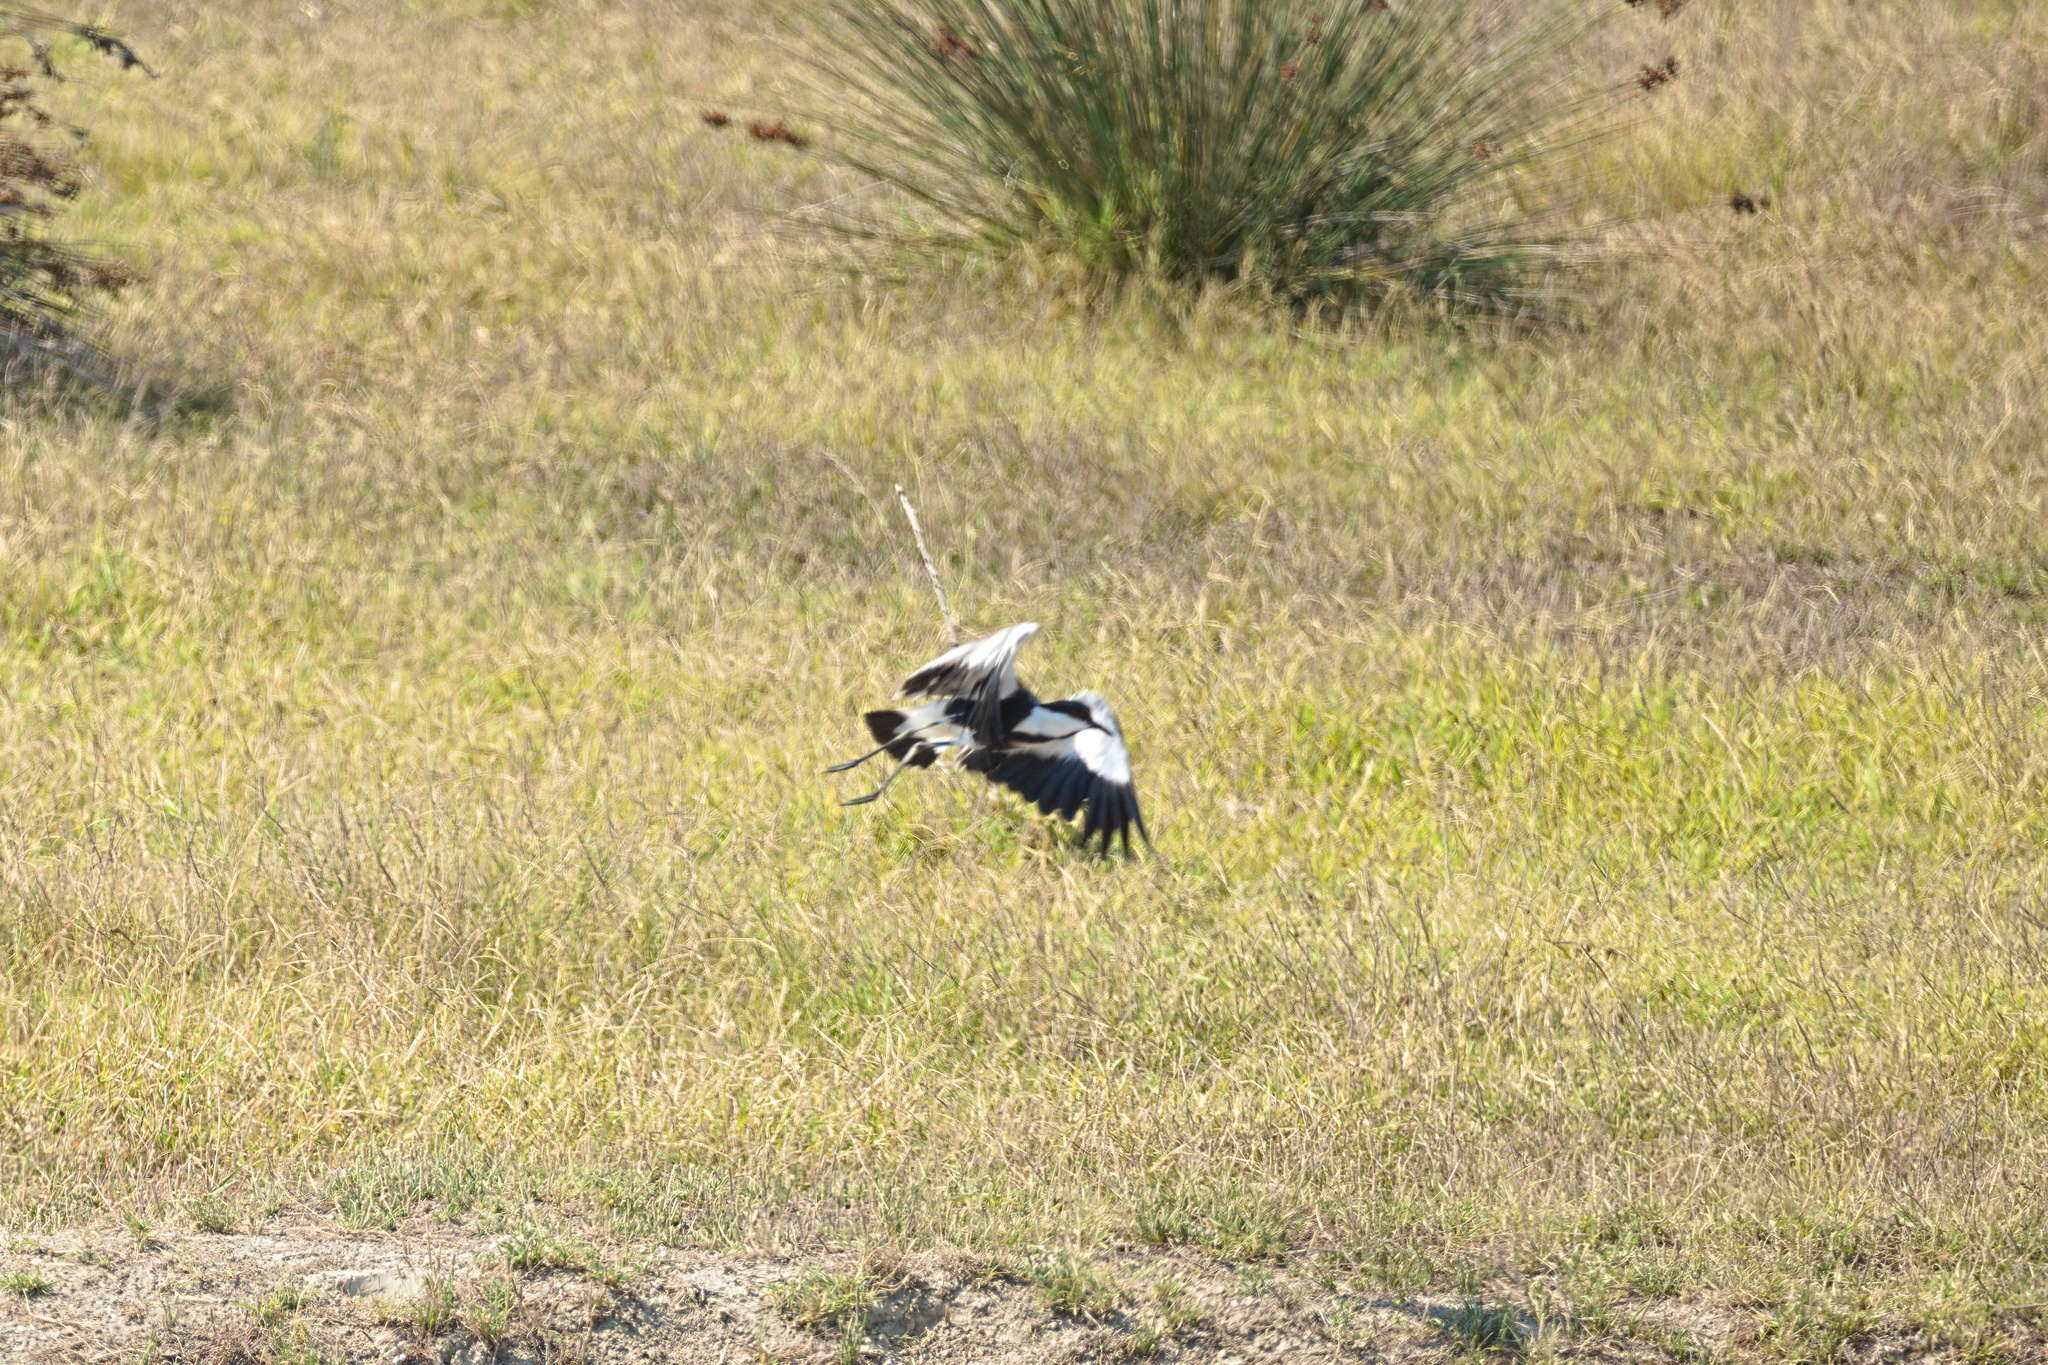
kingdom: Animalia
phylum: Chordata
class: Aves
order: Charadriiformes
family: Charadriidae
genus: Vanellus
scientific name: Vanellus spinosus
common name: Spur-winged lapwing
